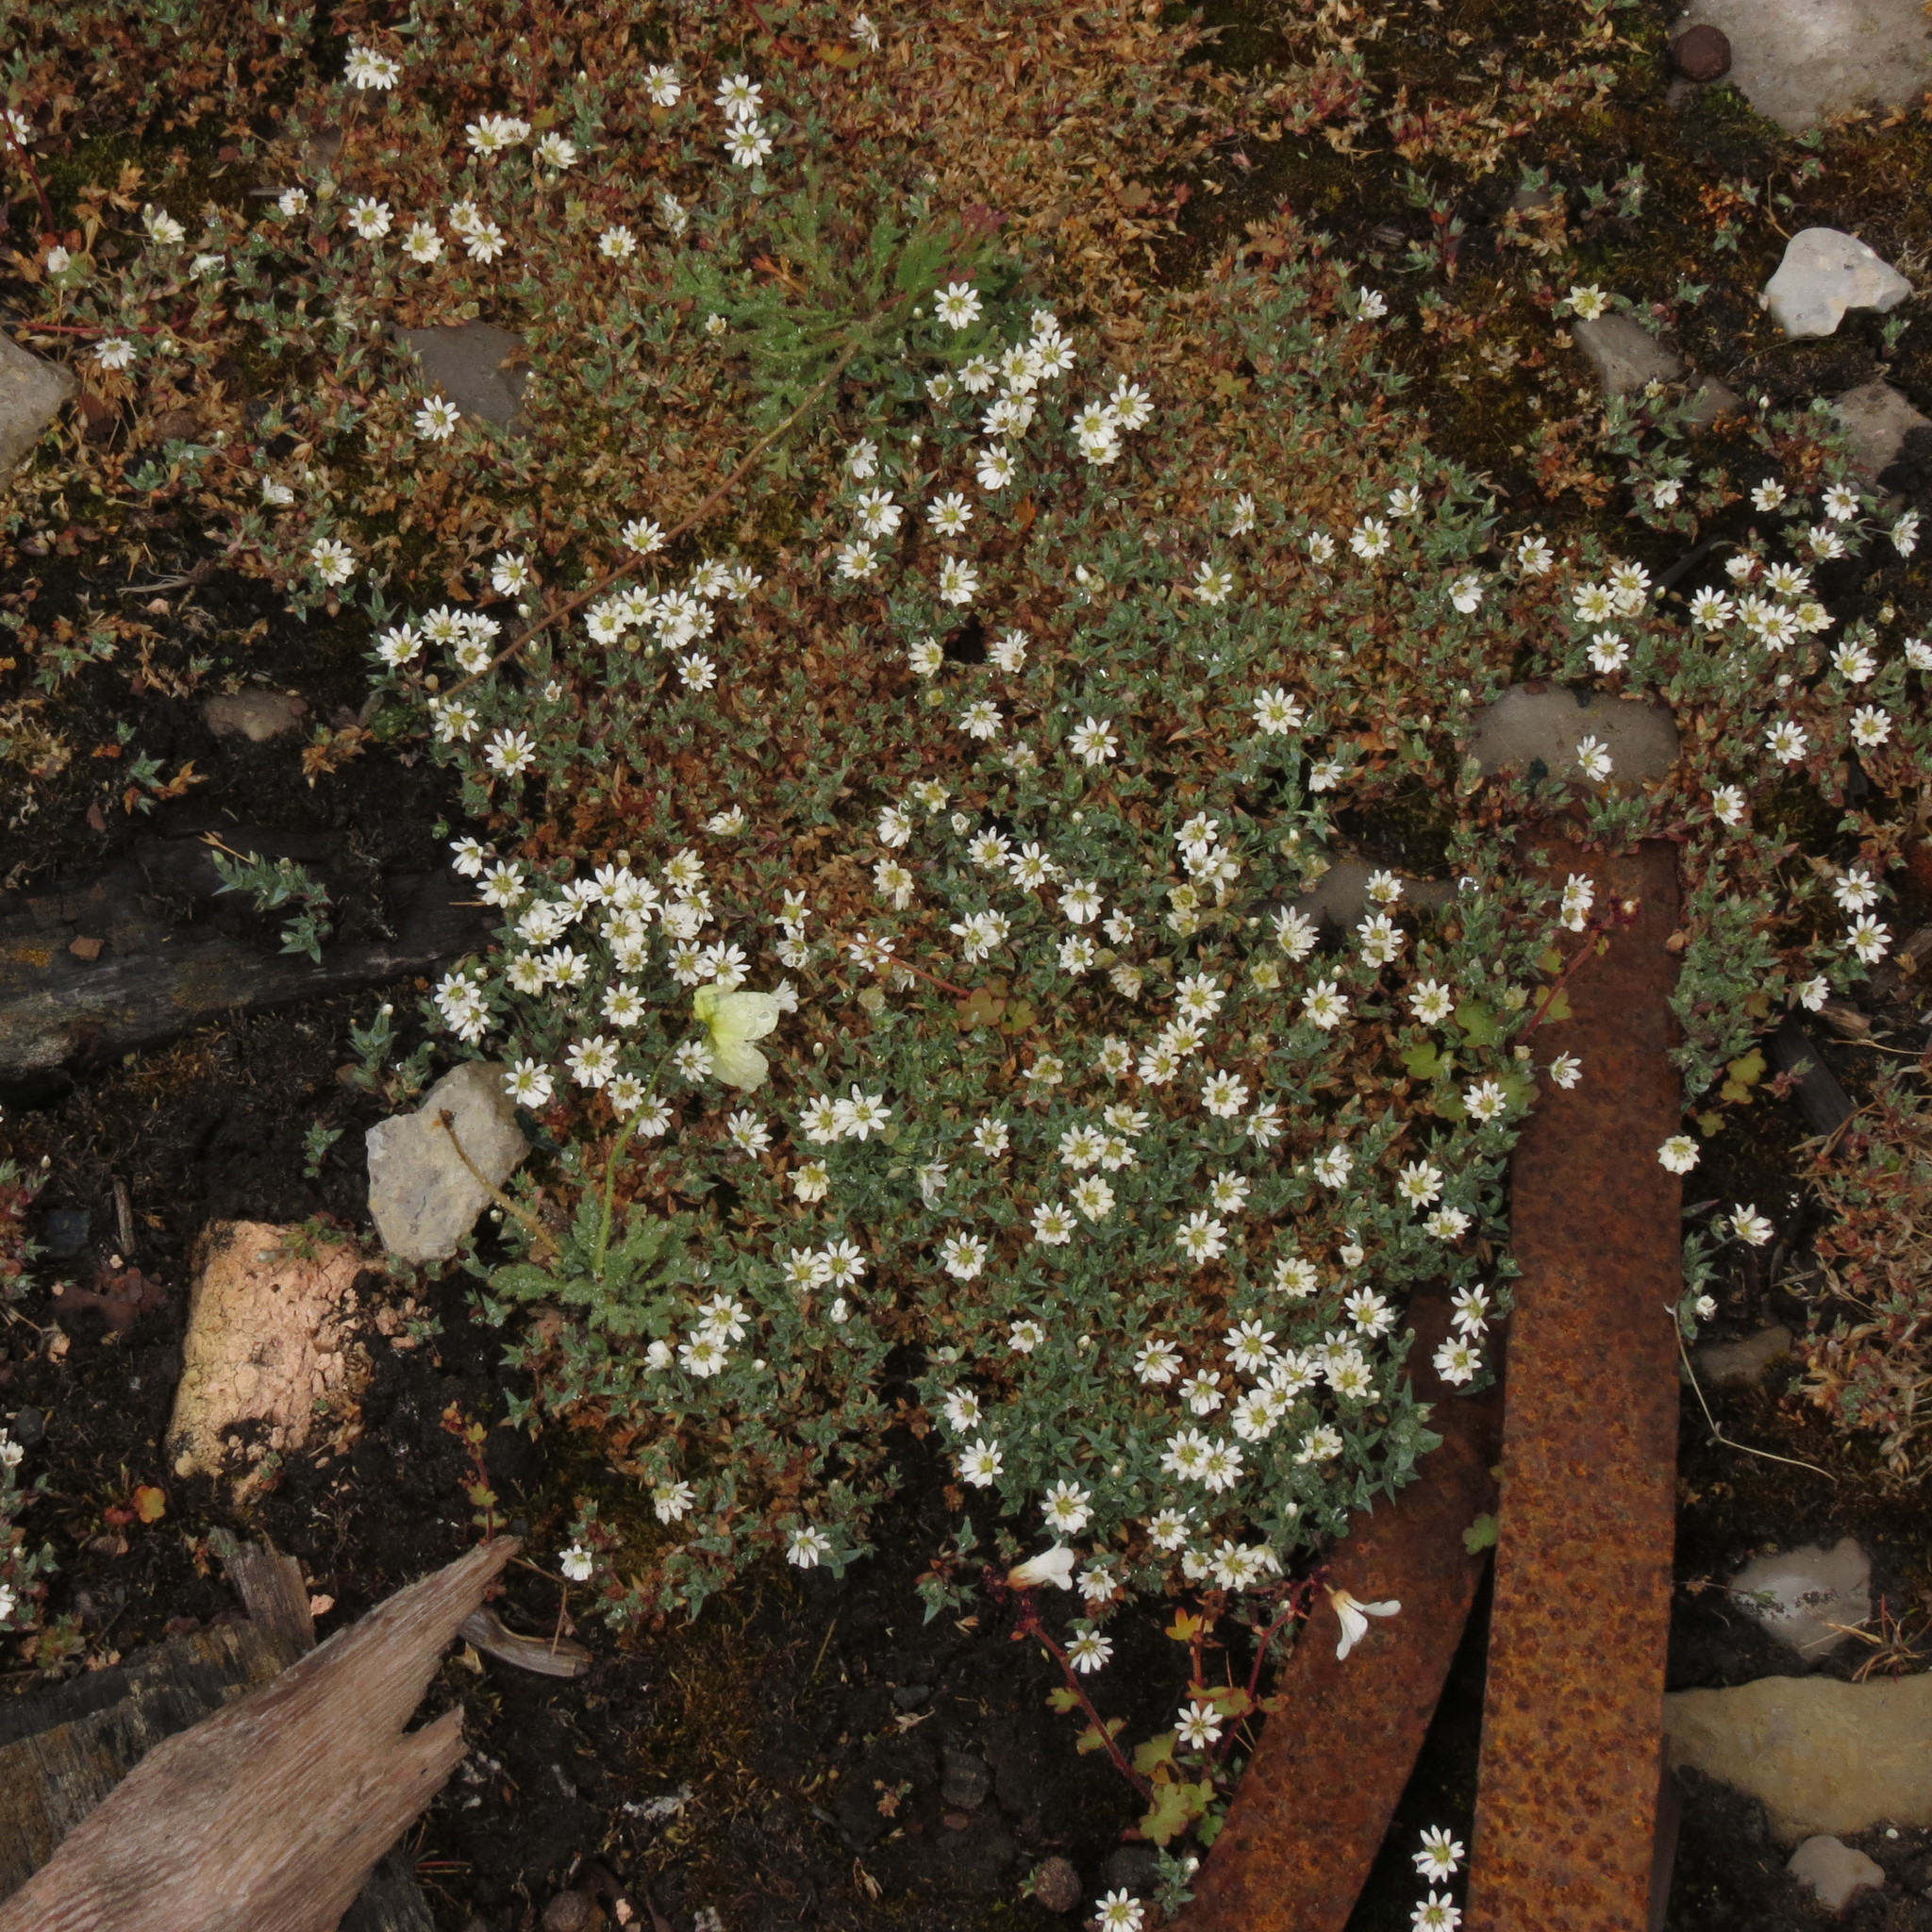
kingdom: Plantae
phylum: Tracheophyta
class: Magnoliopsida
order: Caryophyllales
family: Caryophyllaceae
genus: Stellaria
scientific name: Stellaria longipes
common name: Goldie's starwort
